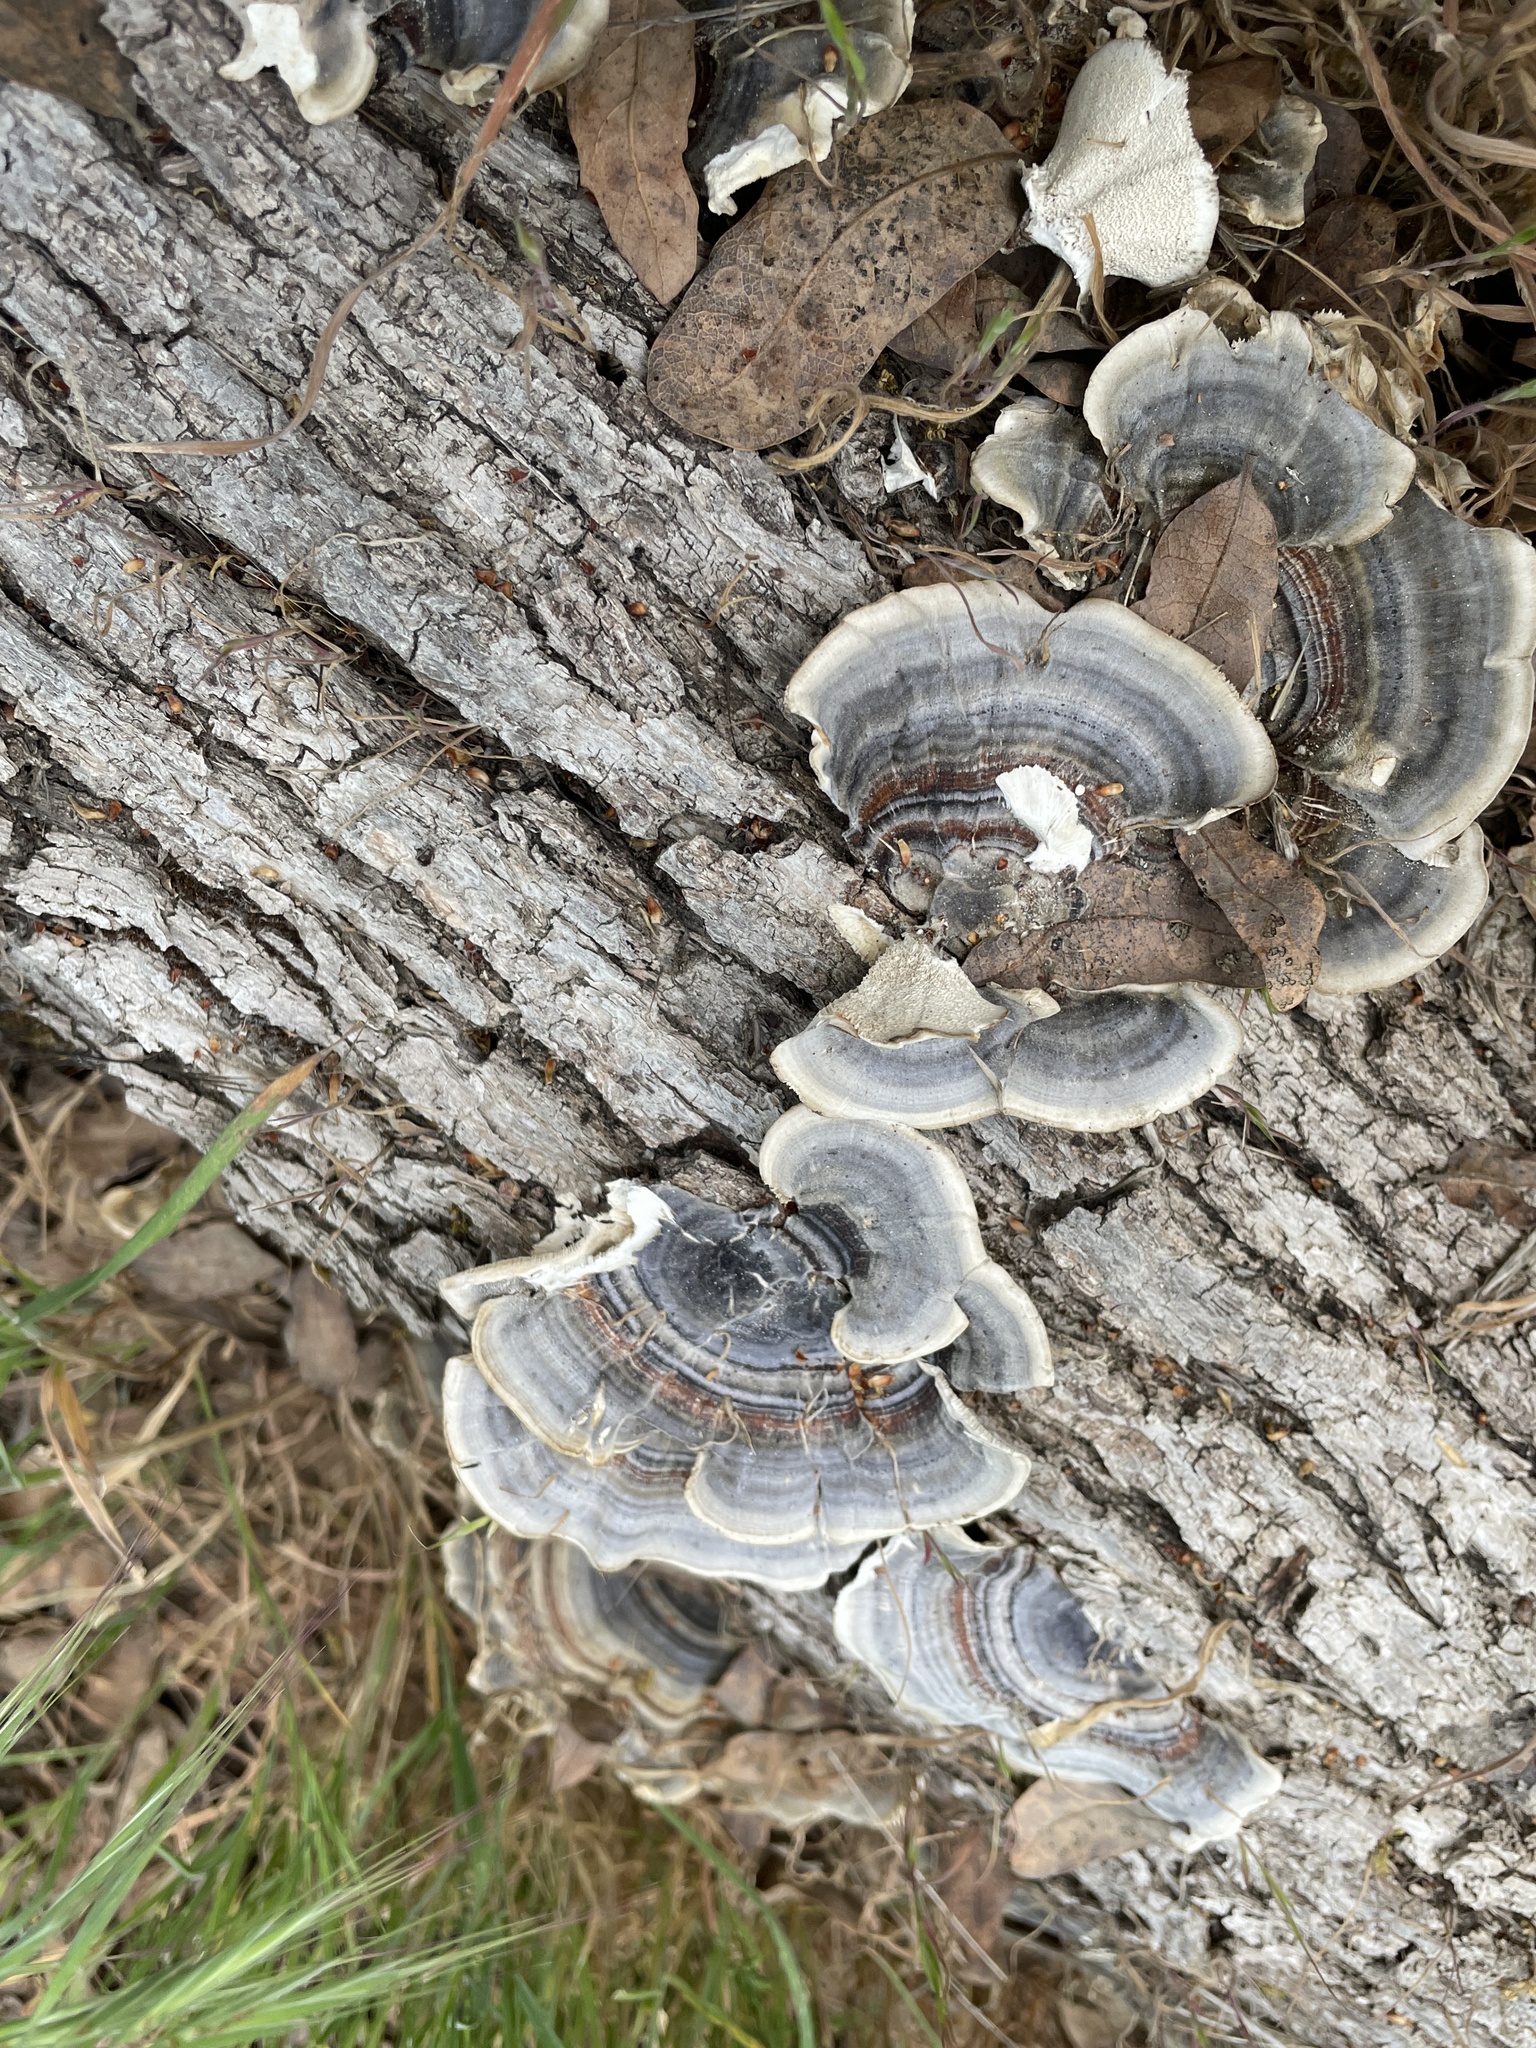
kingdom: Fungi
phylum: Basidiomycota
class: Agaricomycetes
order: Polyporales
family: Polyporaceae
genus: Trametes
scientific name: Trametes versicolor
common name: Turkeytail
